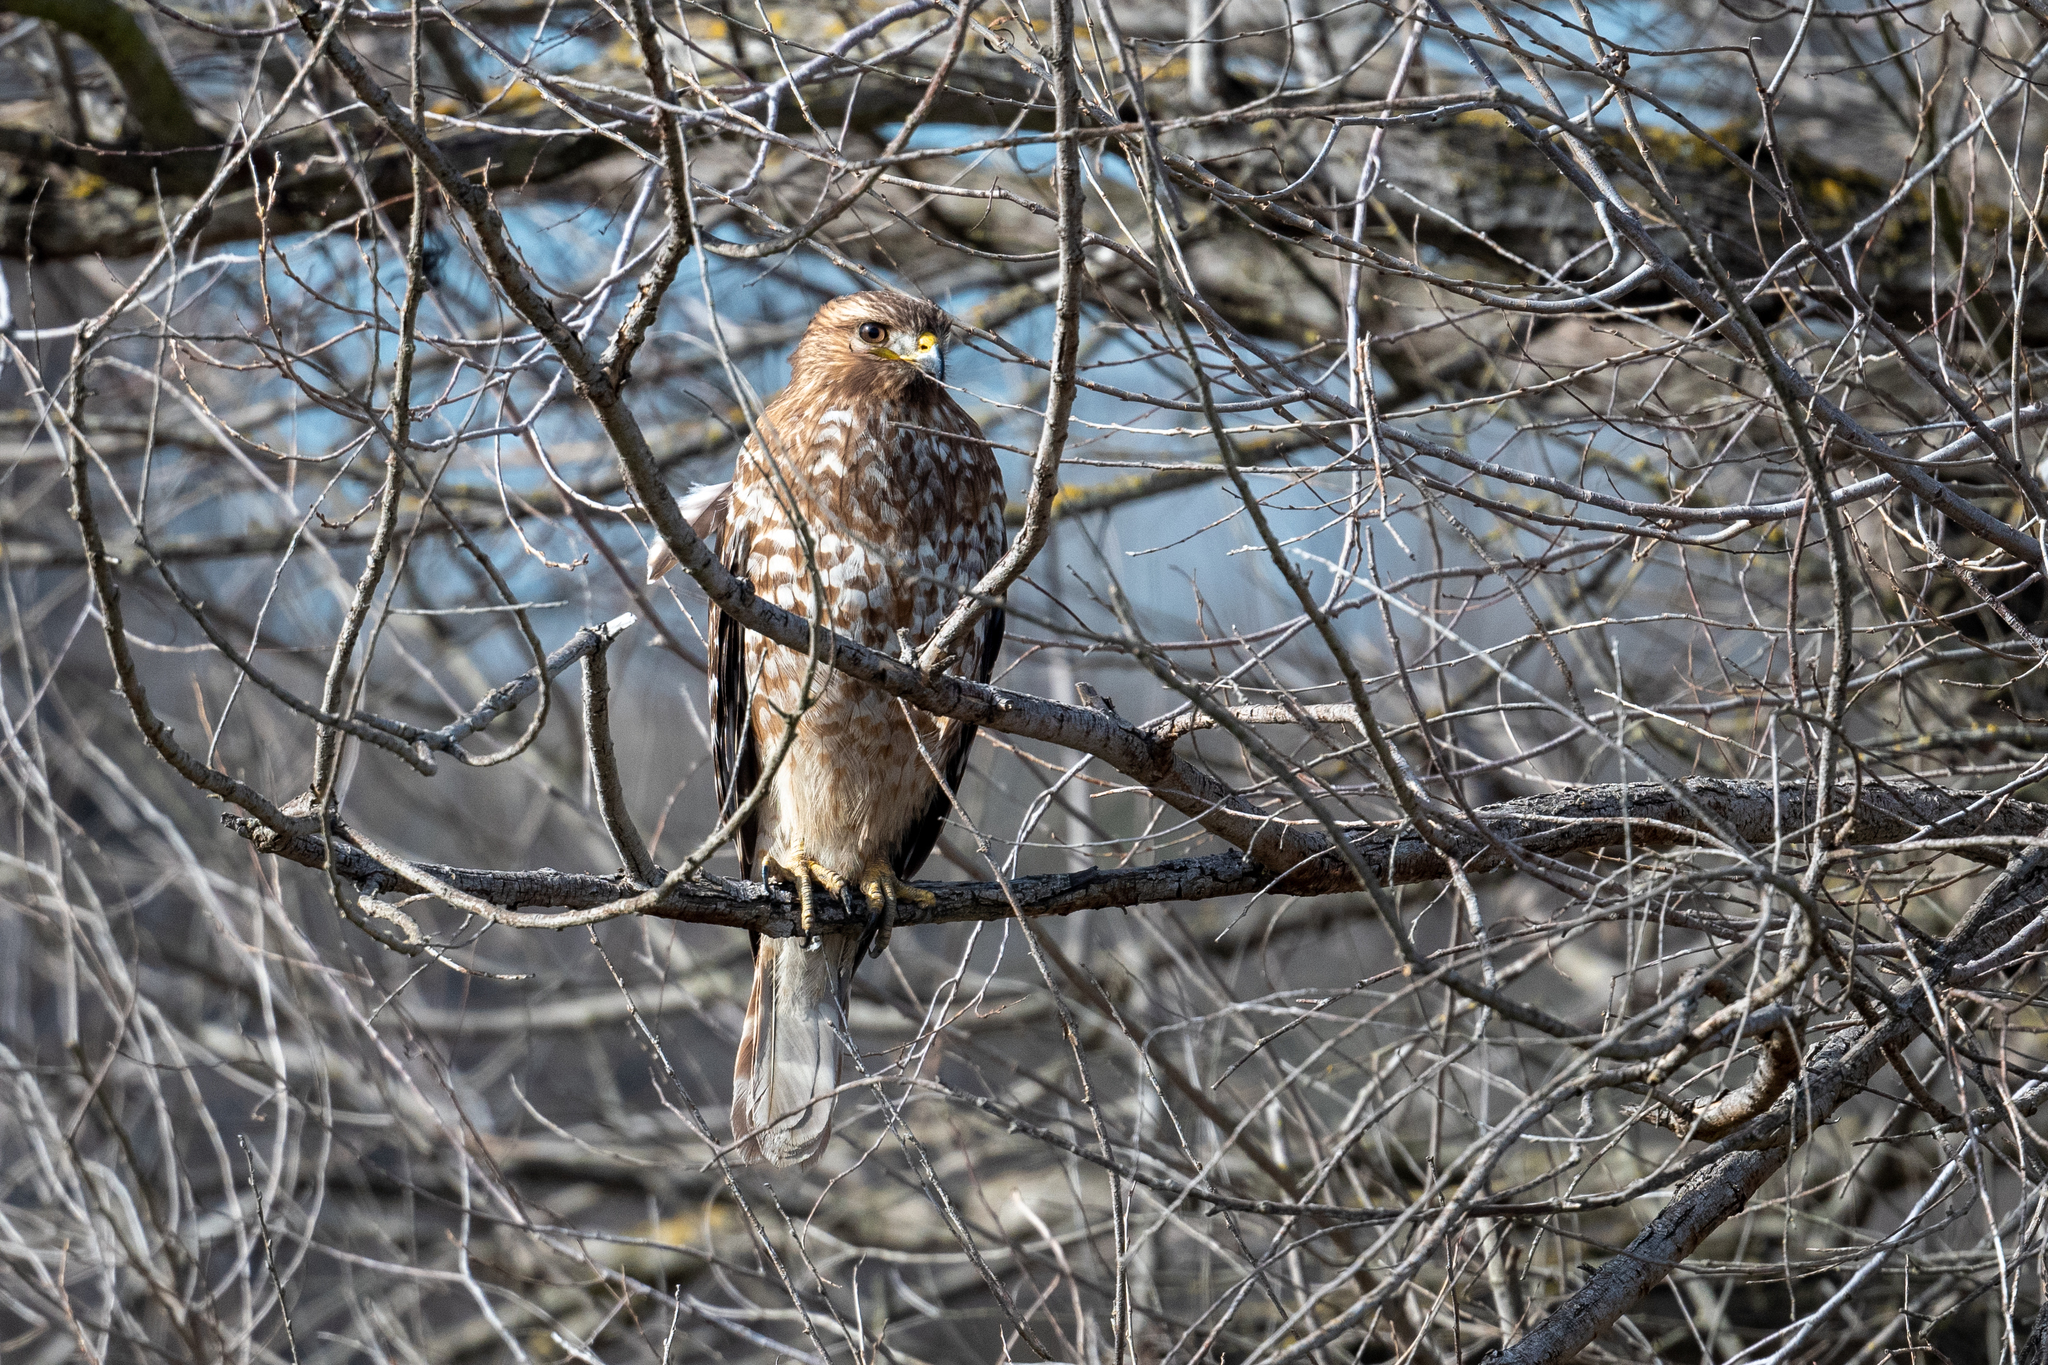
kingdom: Animalia
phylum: Chordata
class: Aves
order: Accipitriformes
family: Accipitridae
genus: Buteo
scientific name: Buteo lineatus
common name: Red-shouldered hawk
